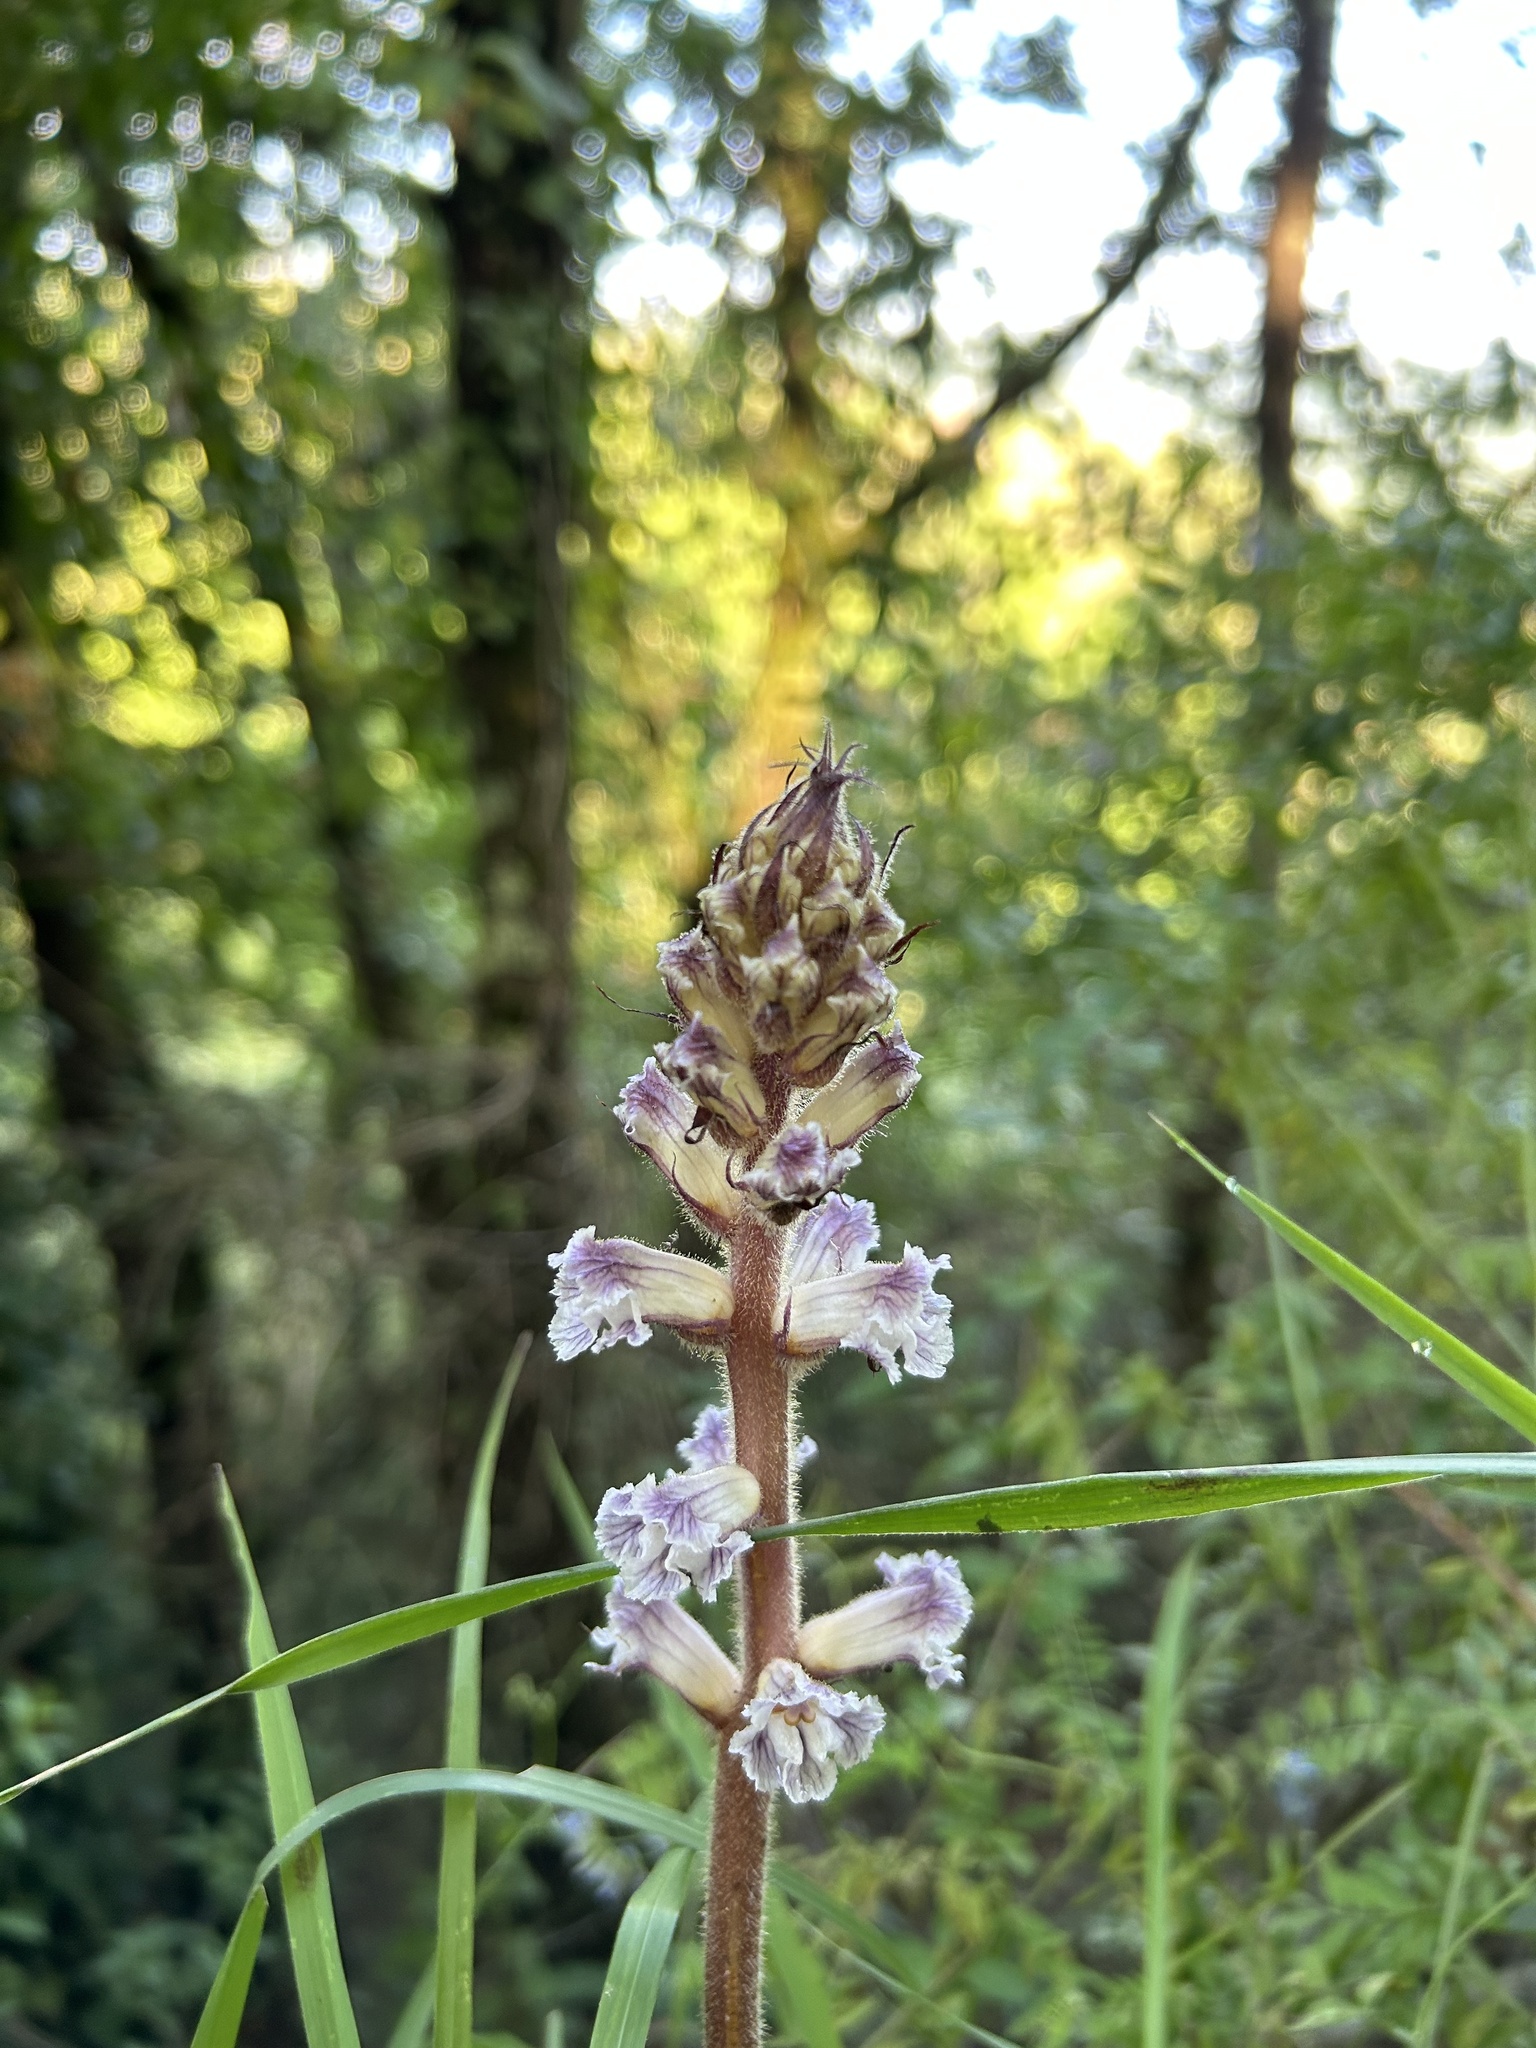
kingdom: Plantae
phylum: Tracheophyta
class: Magnoliopsida
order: Lamiales
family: Orobanchaceae
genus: Orobanche
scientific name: Orobanche crenata
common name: Bean broomrape
